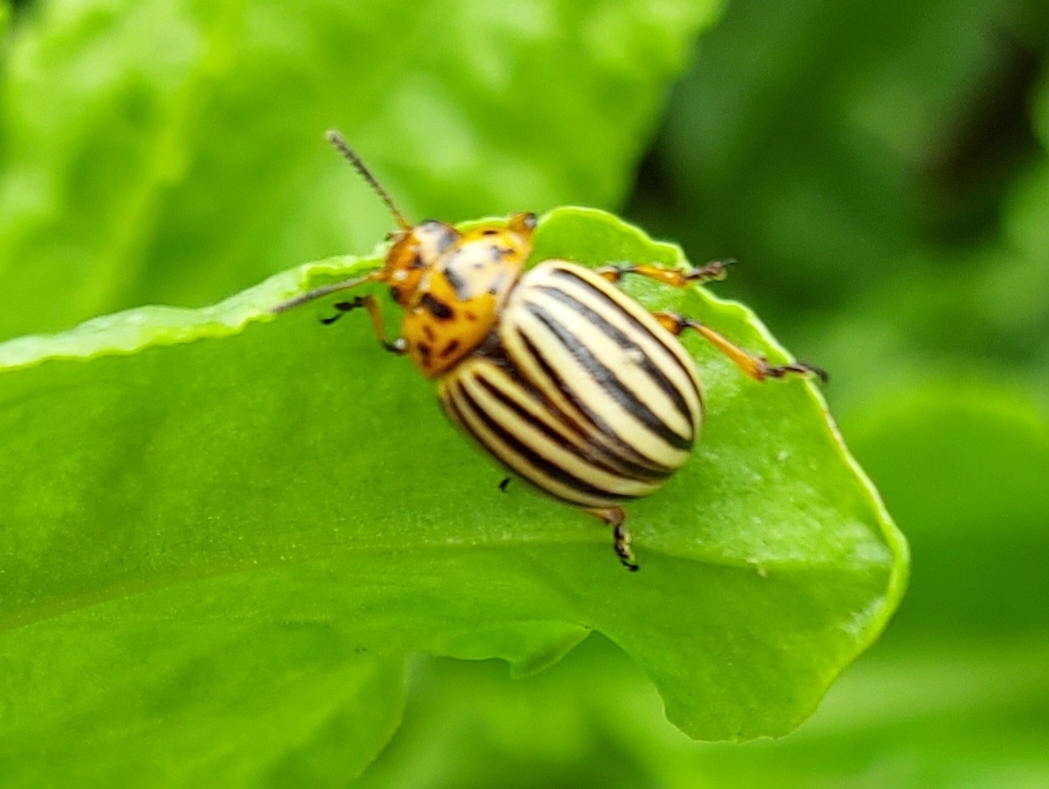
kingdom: Animalia
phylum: Arthropoda
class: Insecta
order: Coleoptera
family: Chrysomelidae
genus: Leptinotarsa
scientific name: Leptinotarsa decemlineata
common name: Colorado potato beetle
